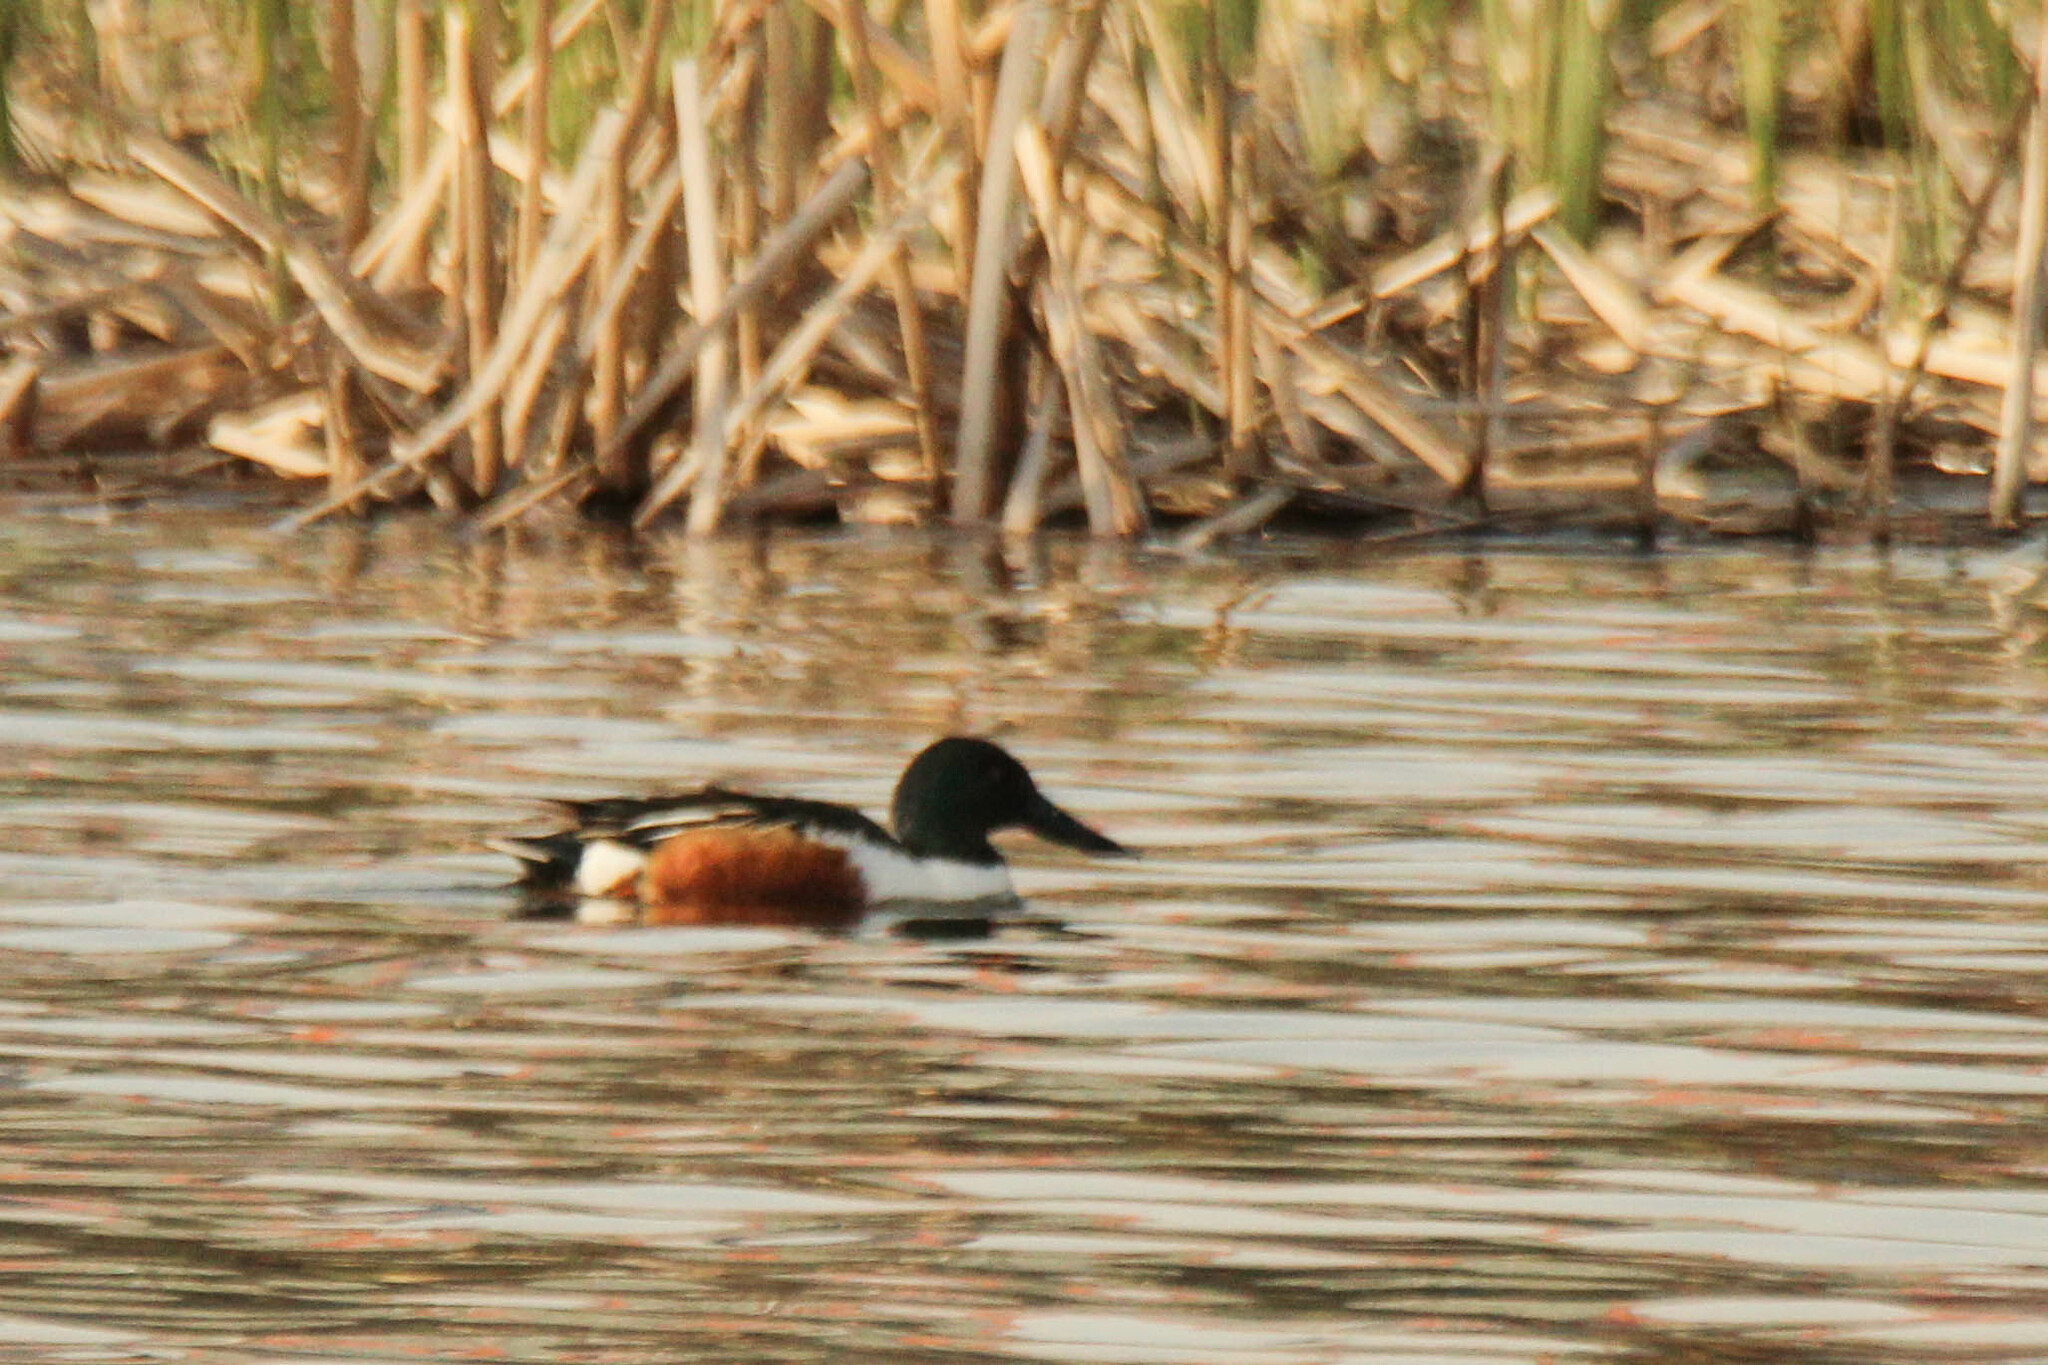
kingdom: Animalia
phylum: Chordata
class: Aves
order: Anseriformes
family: Anatidae
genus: Spatula
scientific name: Spatula clypeata
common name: Northern shoveler
